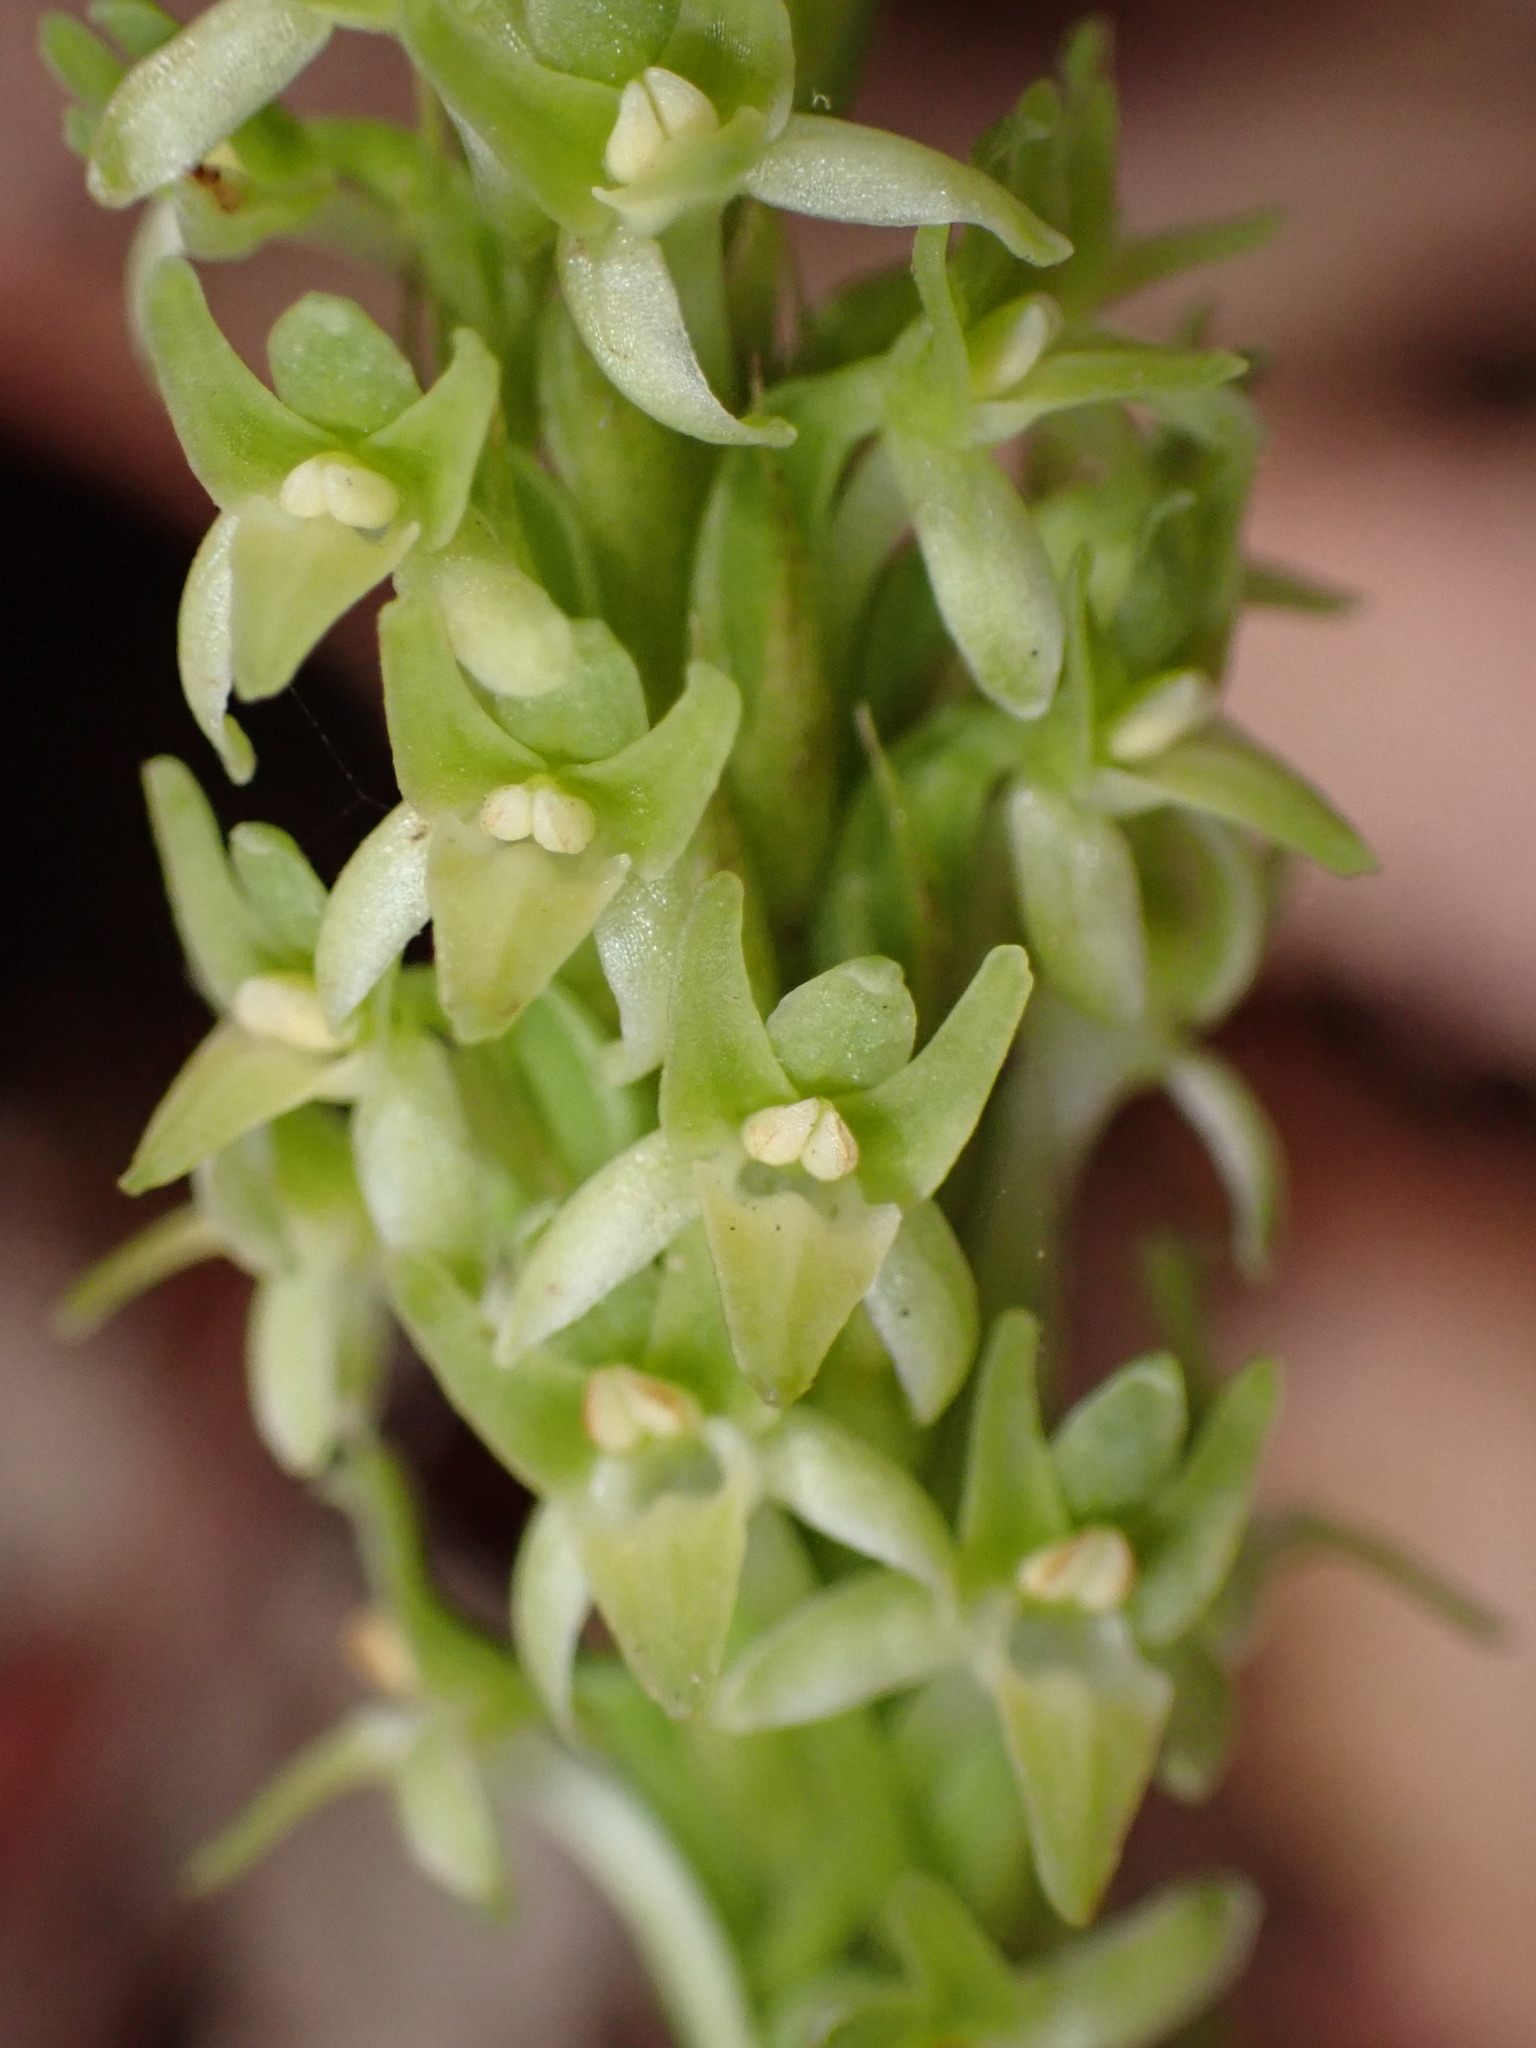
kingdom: Plantae
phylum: Tracheophyta
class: Liliopsida
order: Asparagales
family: Orchidaceae
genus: Platanthera
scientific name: Platanthera elongata
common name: Dense-flowered rein orchid
